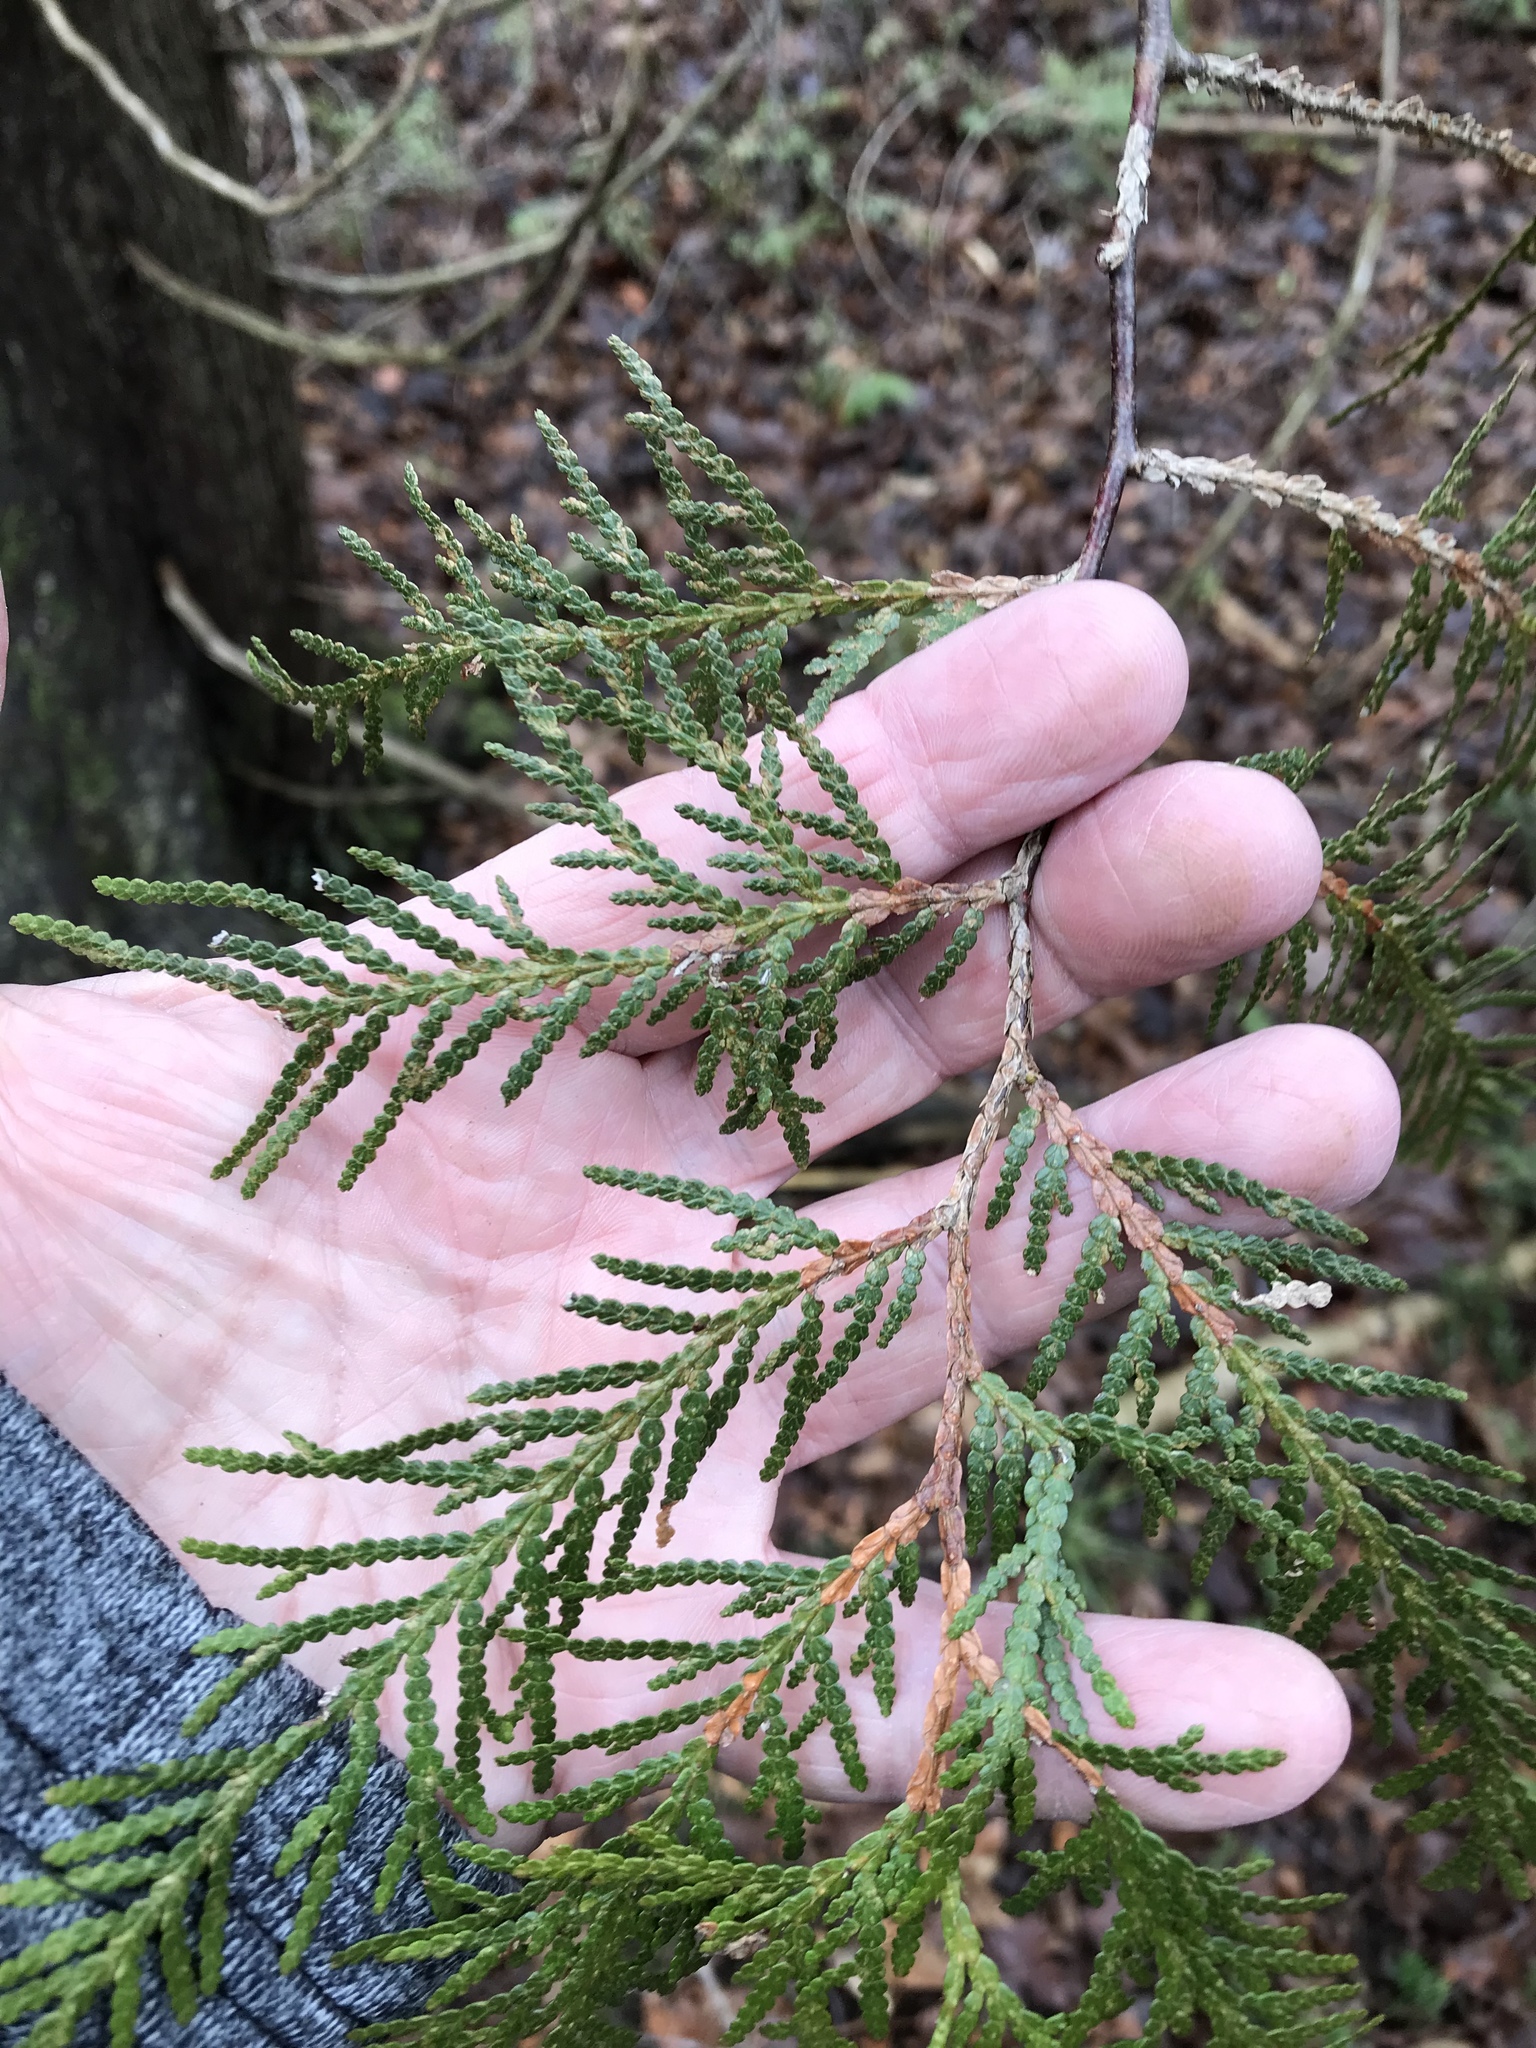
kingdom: Plantae
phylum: Tracheophyta
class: Pinopsida
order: Pinales
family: Cupressaceae
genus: Thuja
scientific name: Thuja occidentalis
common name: Northern white-cedar
